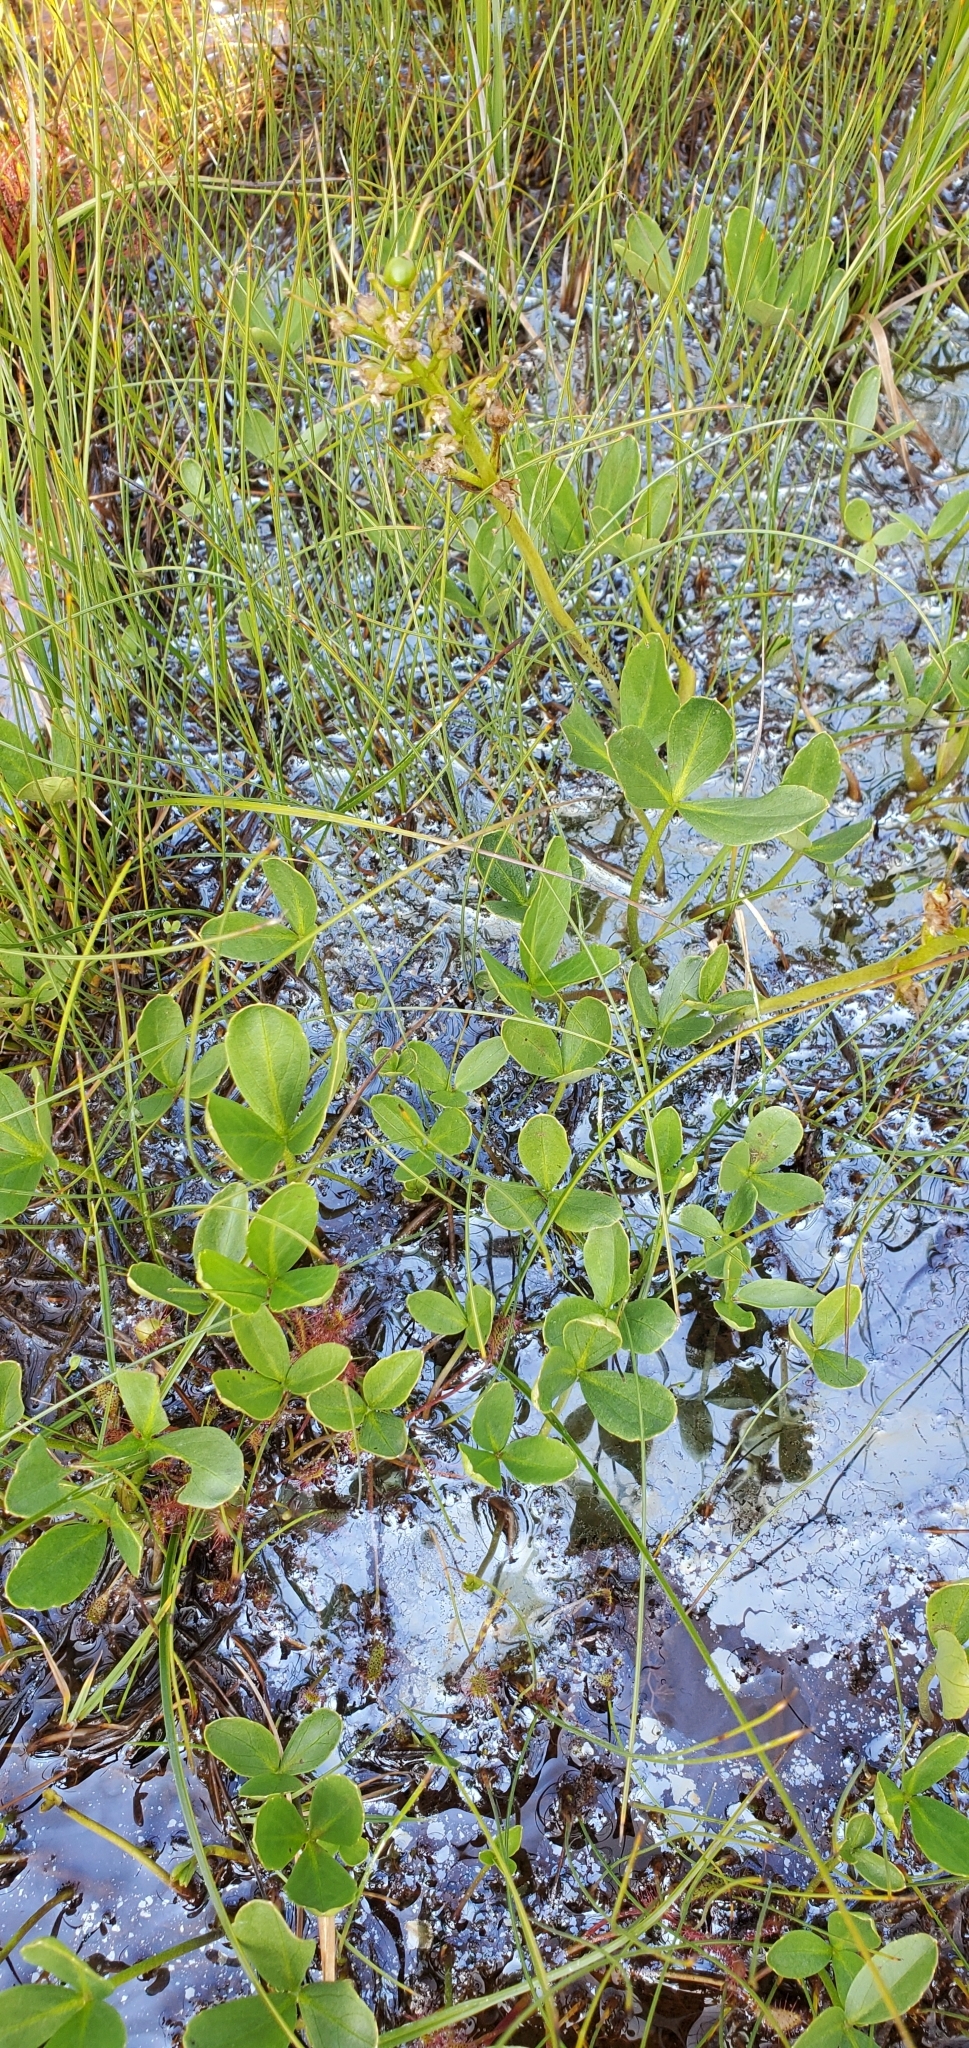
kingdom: Plantae
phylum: Tracheophyta
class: Magnoliopsida
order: Asterales
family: Menyanthaceae
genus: Menyanthes
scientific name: Menyanthes trifoliata
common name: Bogbean
